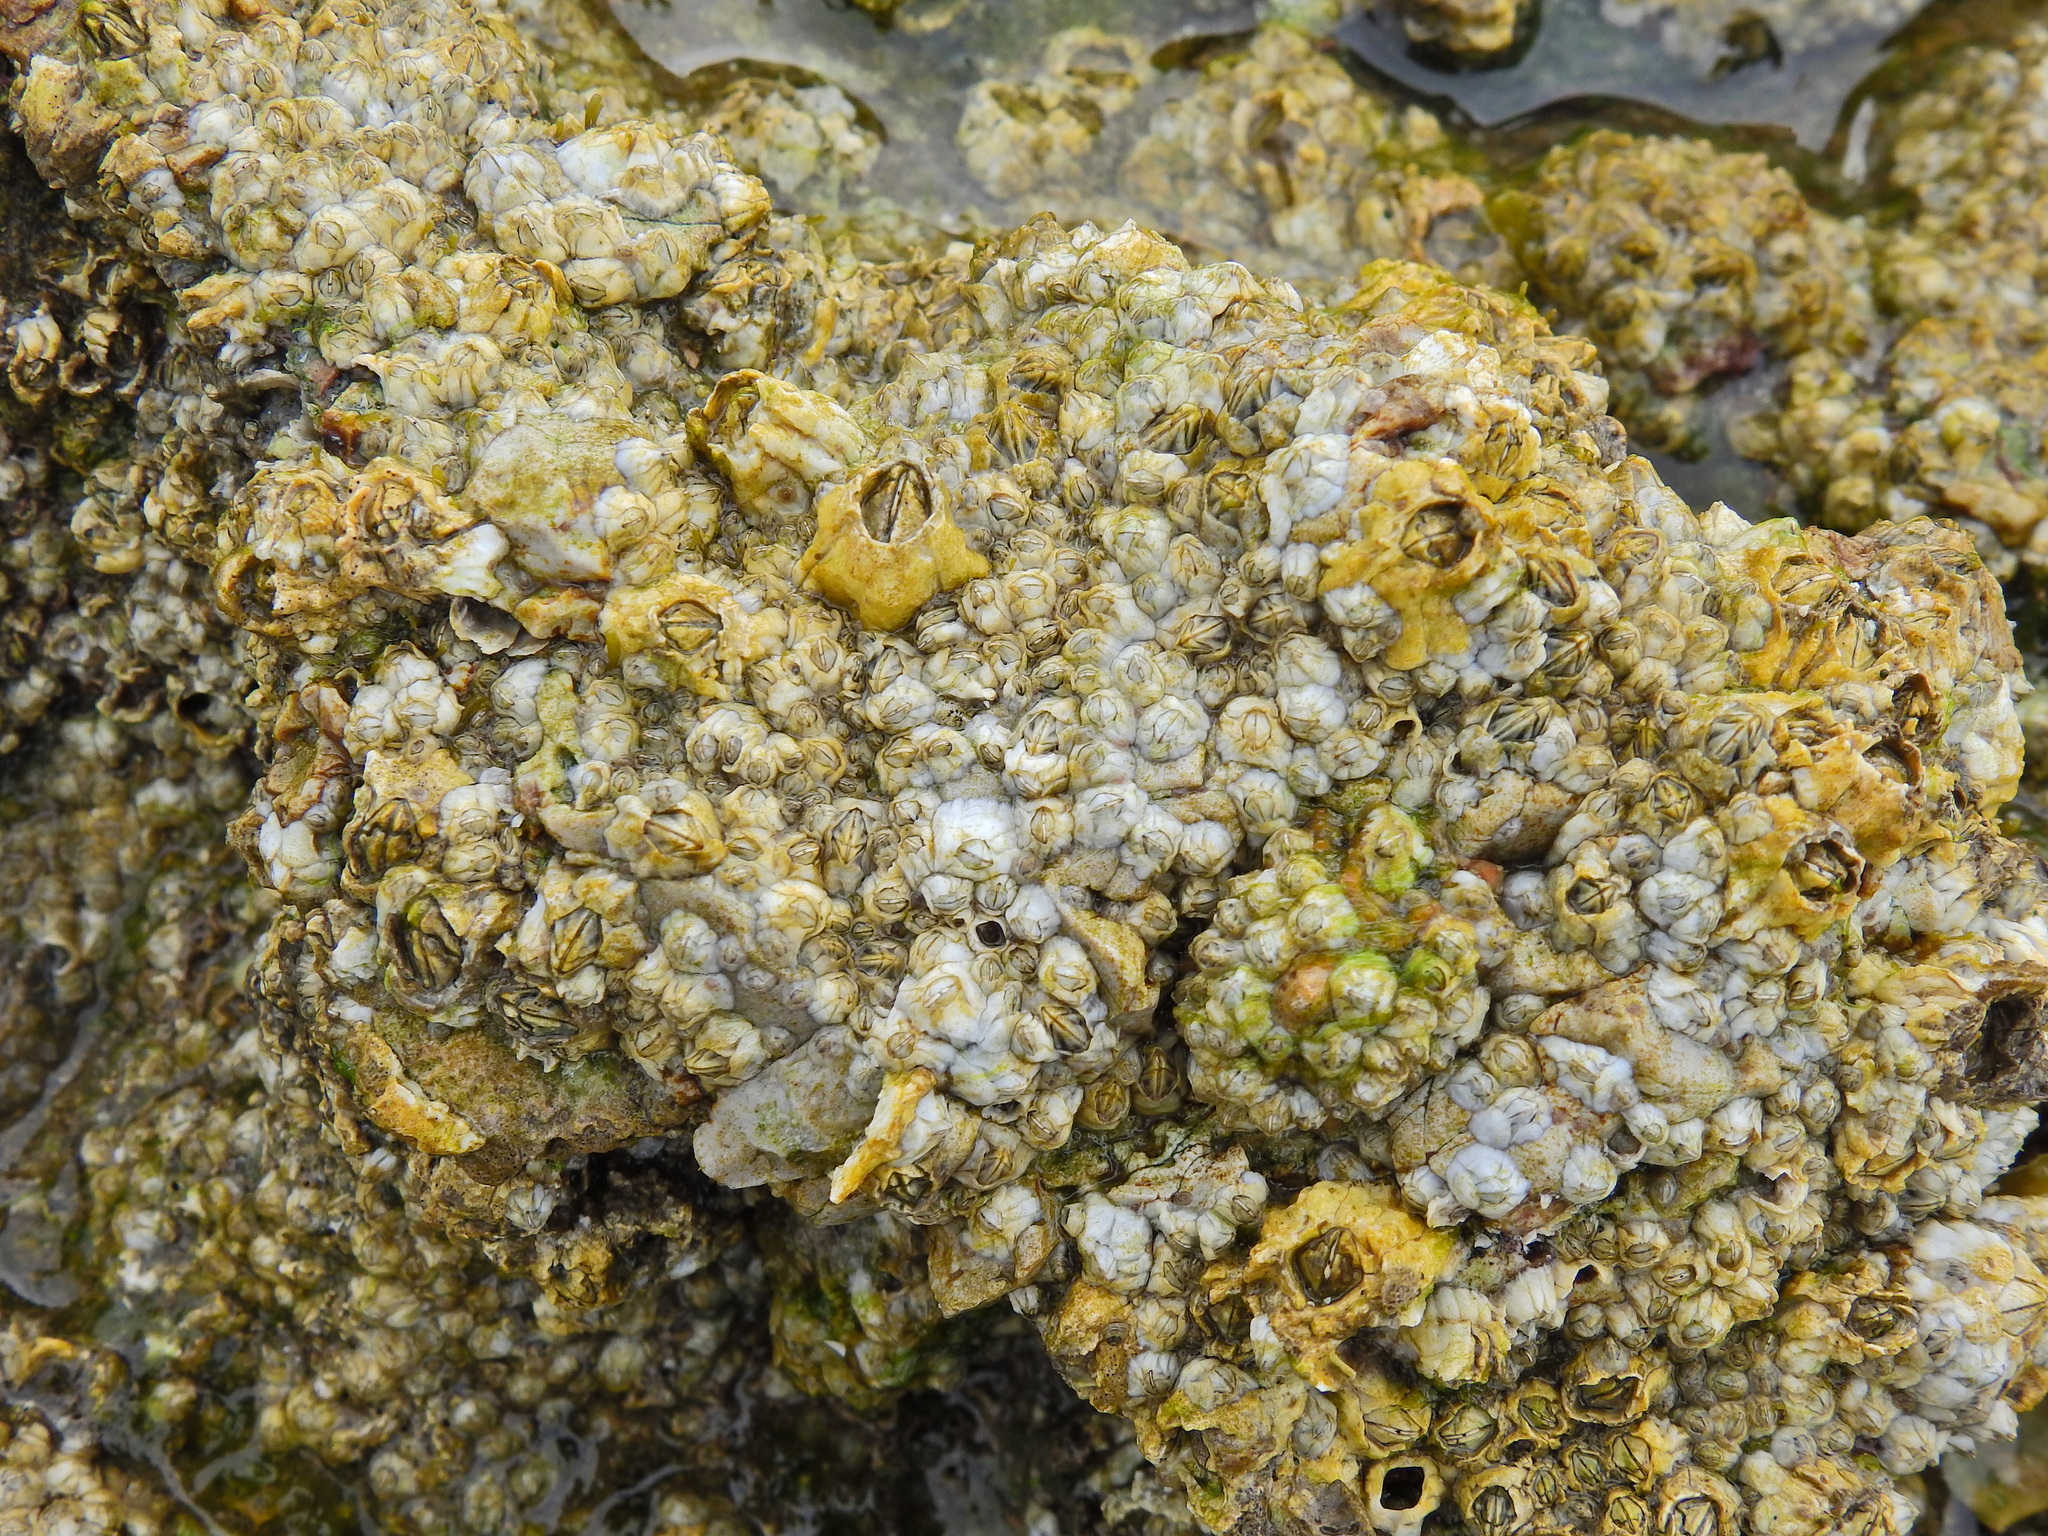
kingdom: Animalia
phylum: Arthropoda
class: Maxillopoda
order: Sessilia
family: Archaeobalanidae
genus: Semibalanus
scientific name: Semibalanus balanoides
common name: Acorn barnacle
